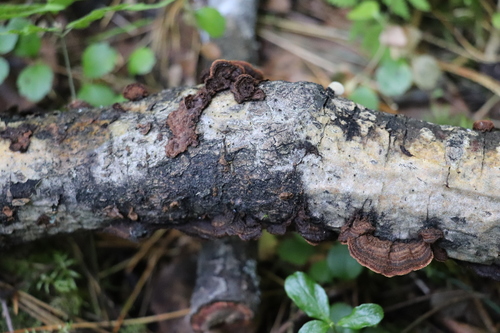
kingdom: Fungi
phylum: Basidiomycota
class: Agaricomycetes
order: Russulales
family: Hericiaceae
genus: Laxitextum
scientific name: Laxitextum bicolor
